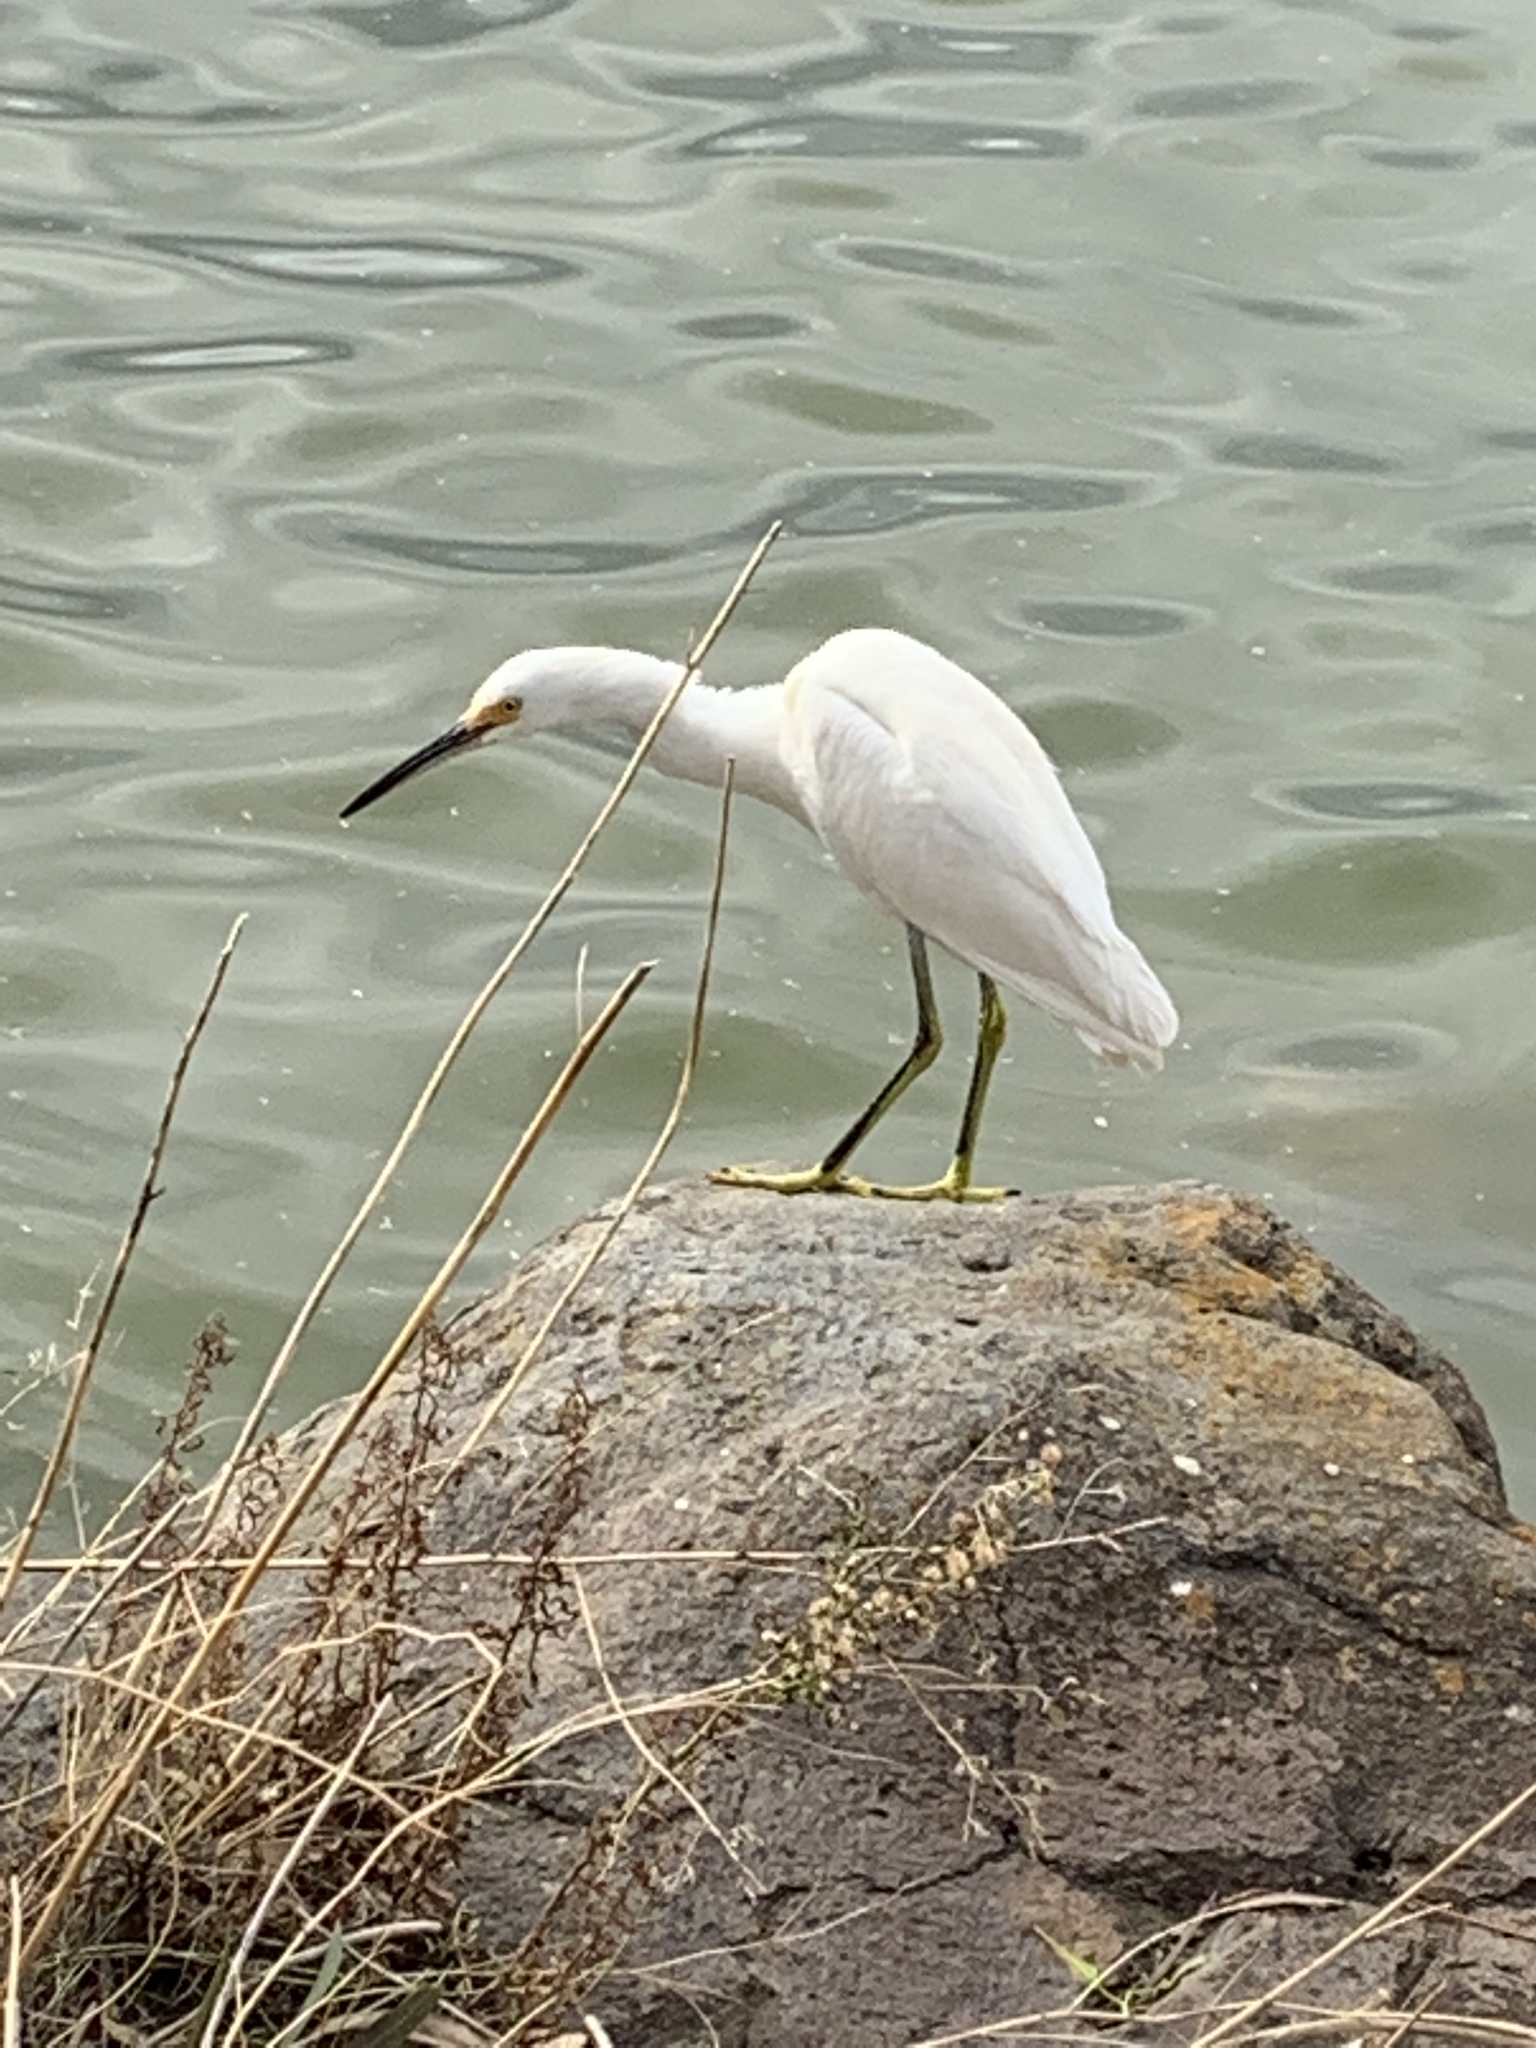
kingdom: Animalia
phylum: Chordata
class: Aves
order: Pelecaniformes
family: Ardeidae
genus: Egretta
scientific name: Egretta thula
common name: Snowy egret
